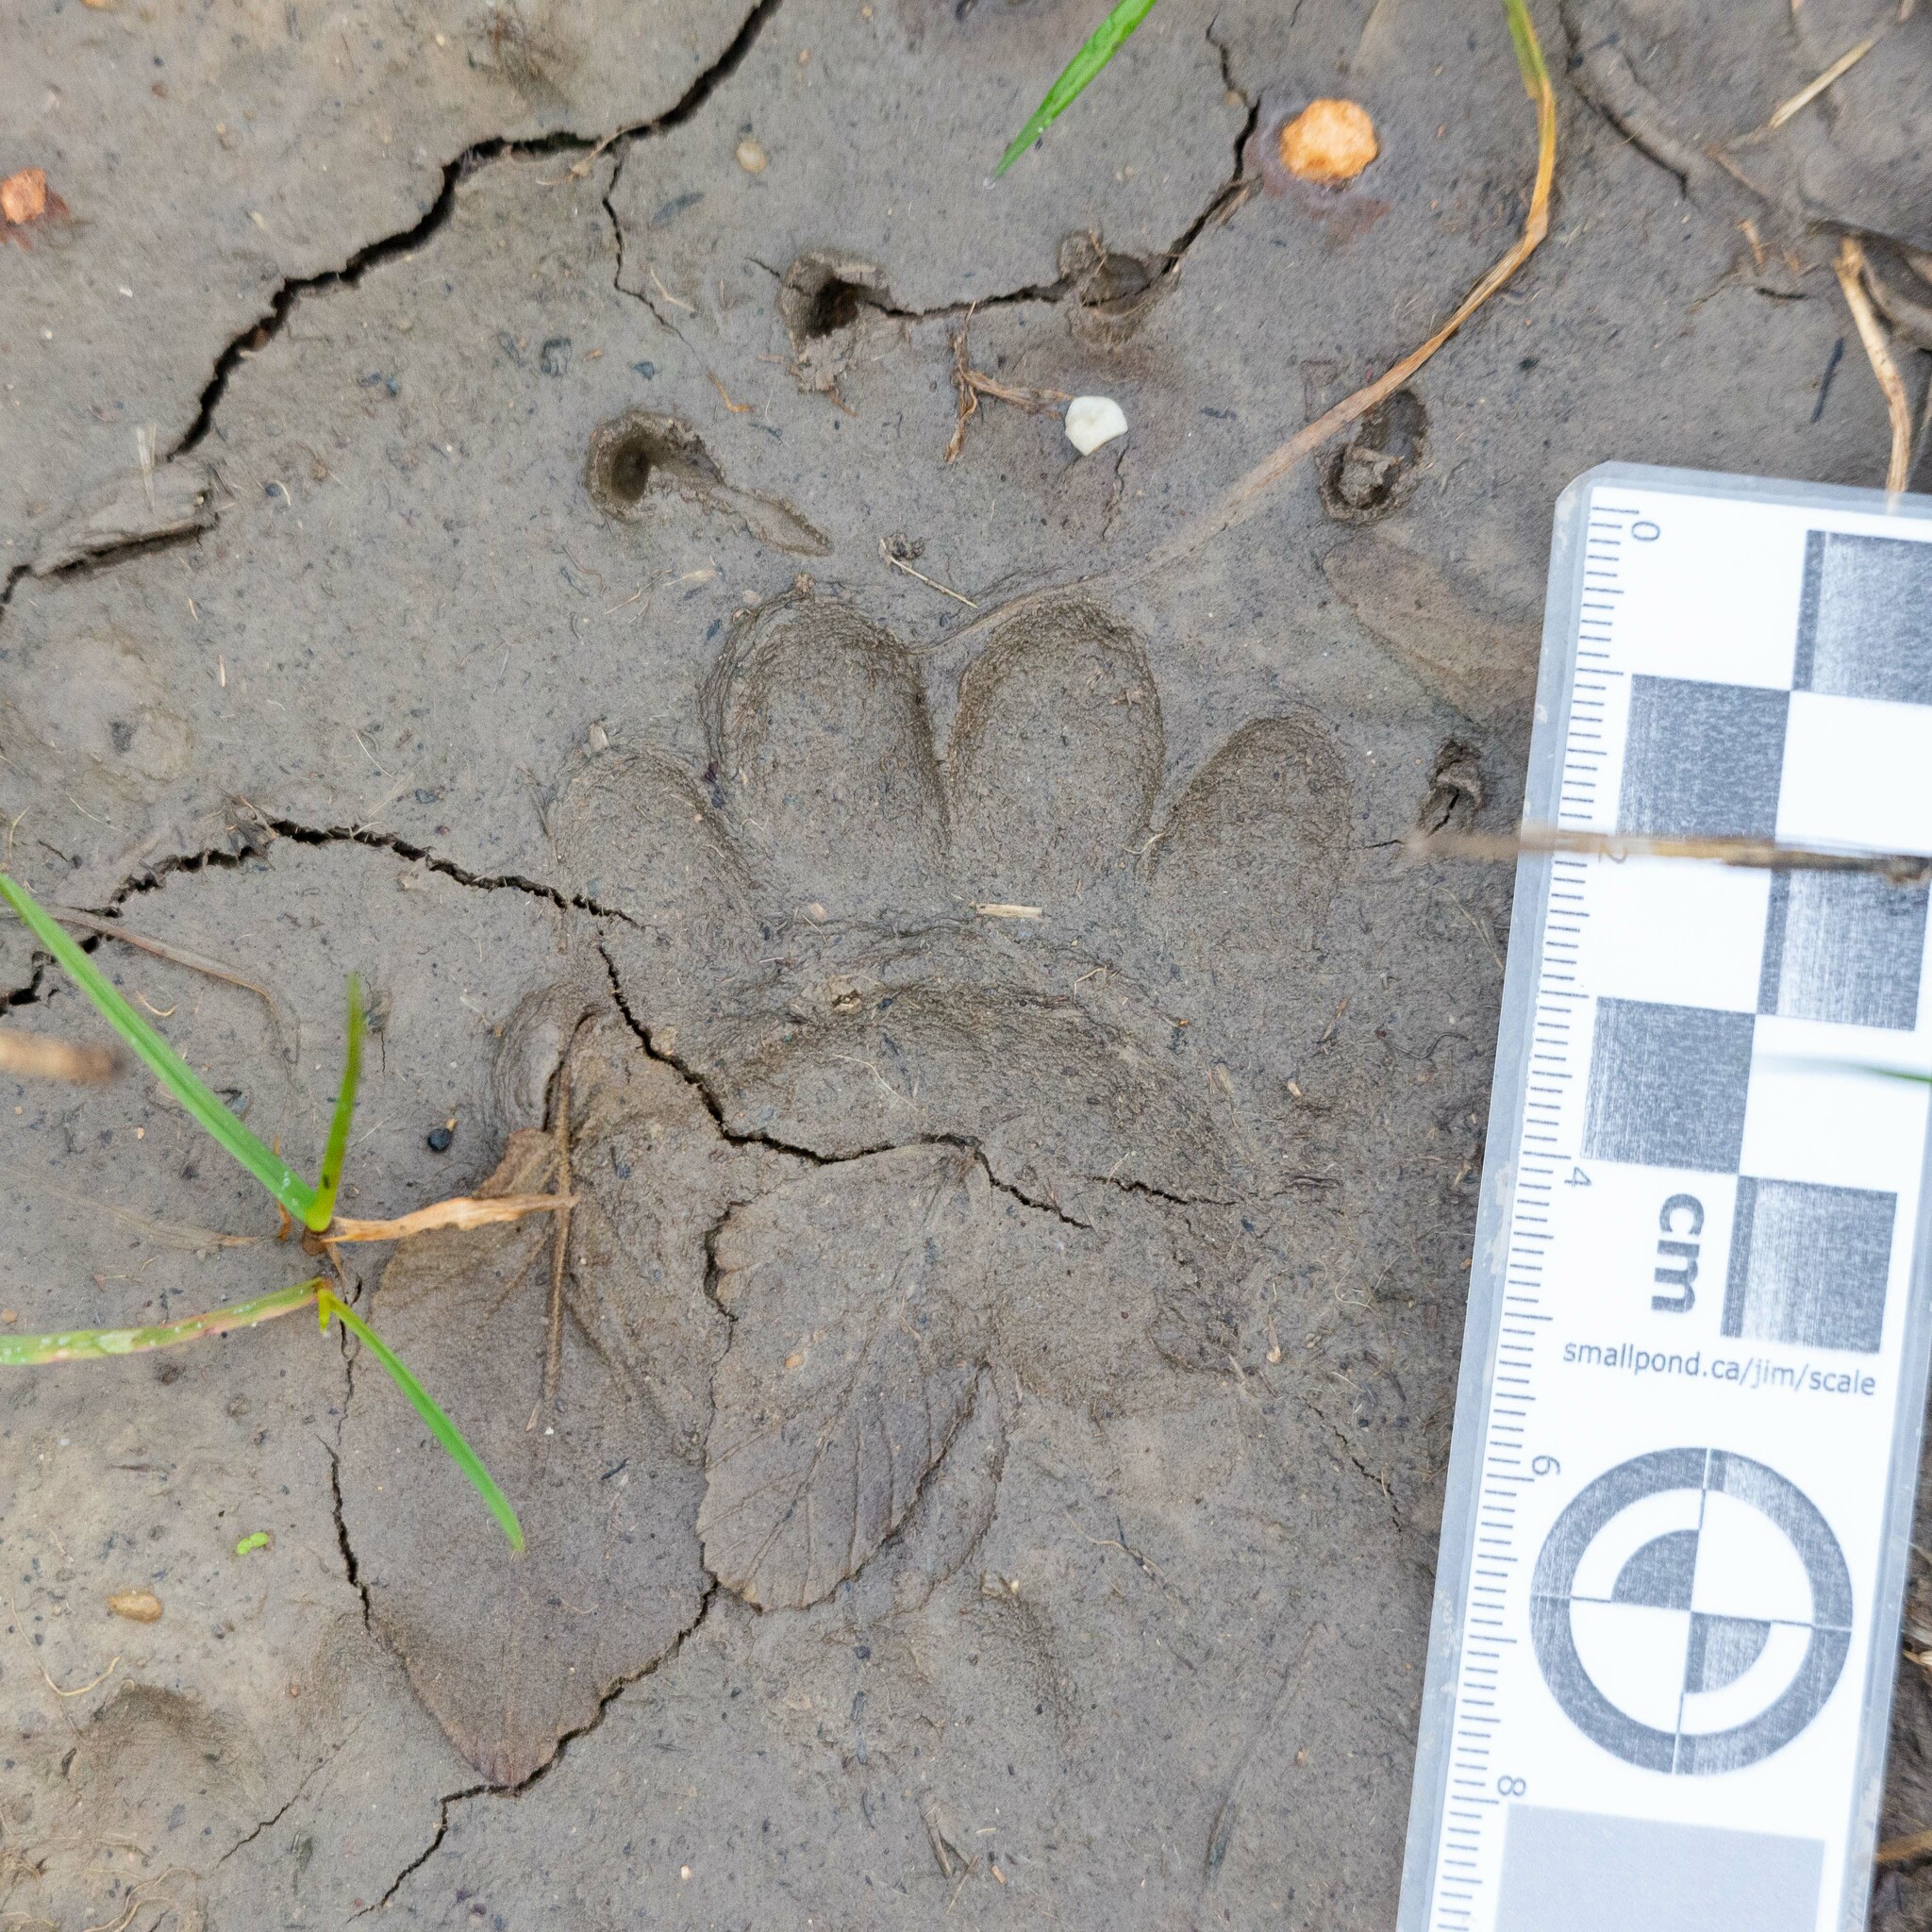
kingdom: Animalia
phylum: Chordata
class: Mammalia
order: Carnivora
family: Mustelidae
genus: Meles
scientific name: Meles meles
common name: Eurasian badger
